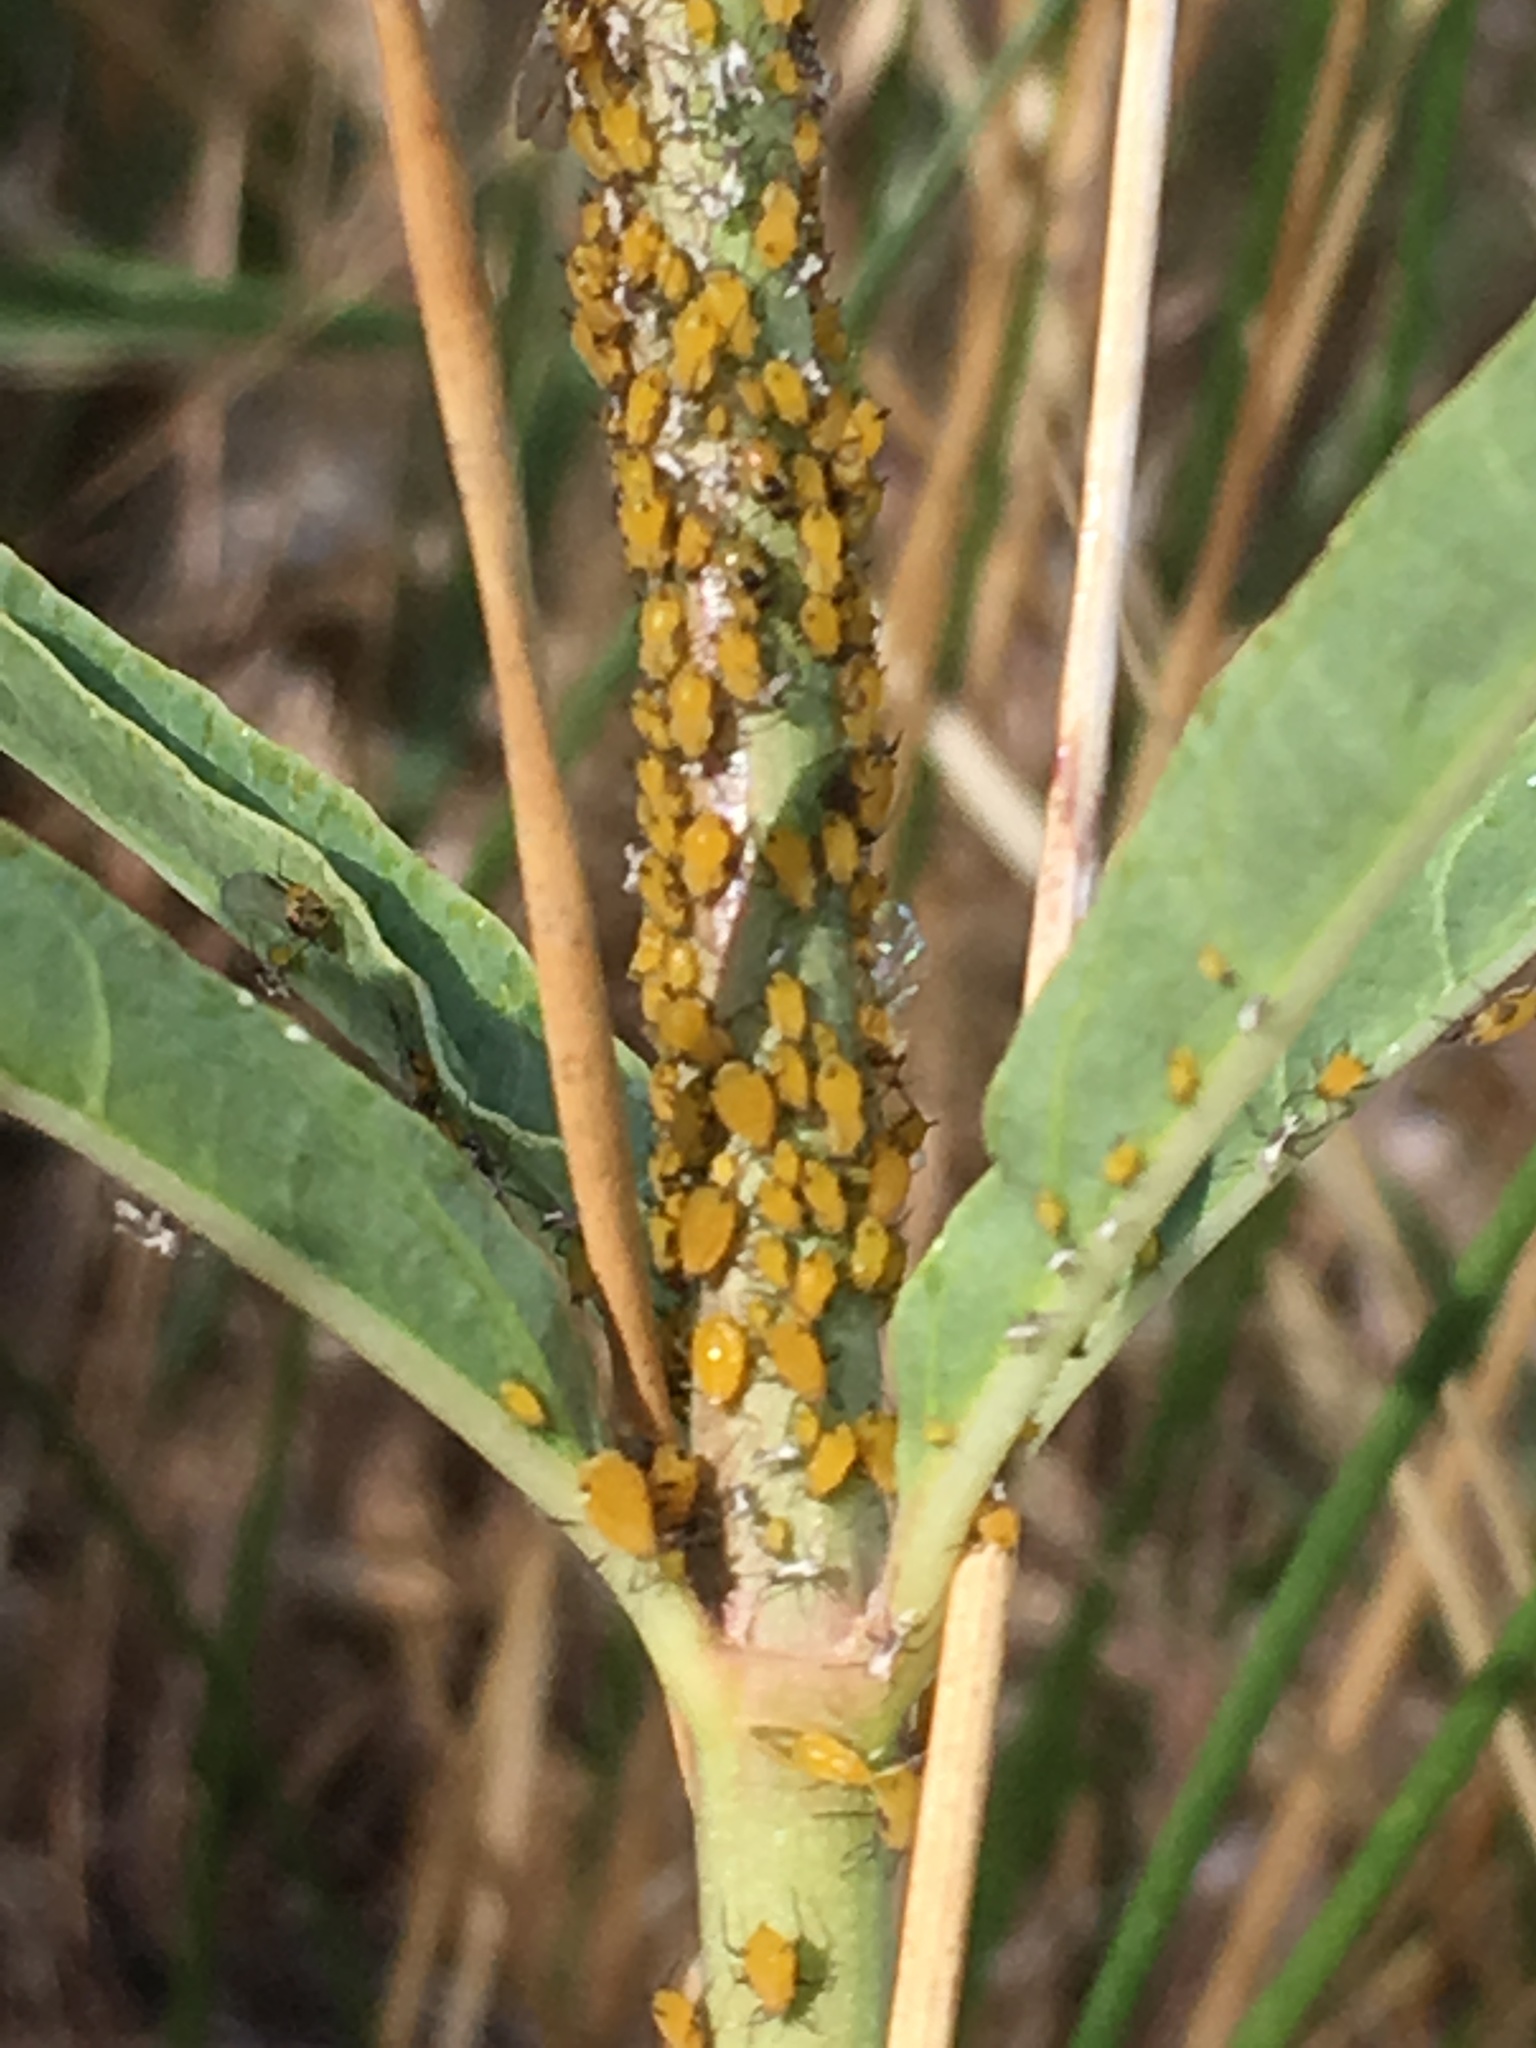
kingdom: Animalia
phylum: Arthropoda
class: Insecta
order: Hemiptera
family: Aphididae
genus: Aphis
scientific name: Aphis nerii
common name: Oleander aphid
